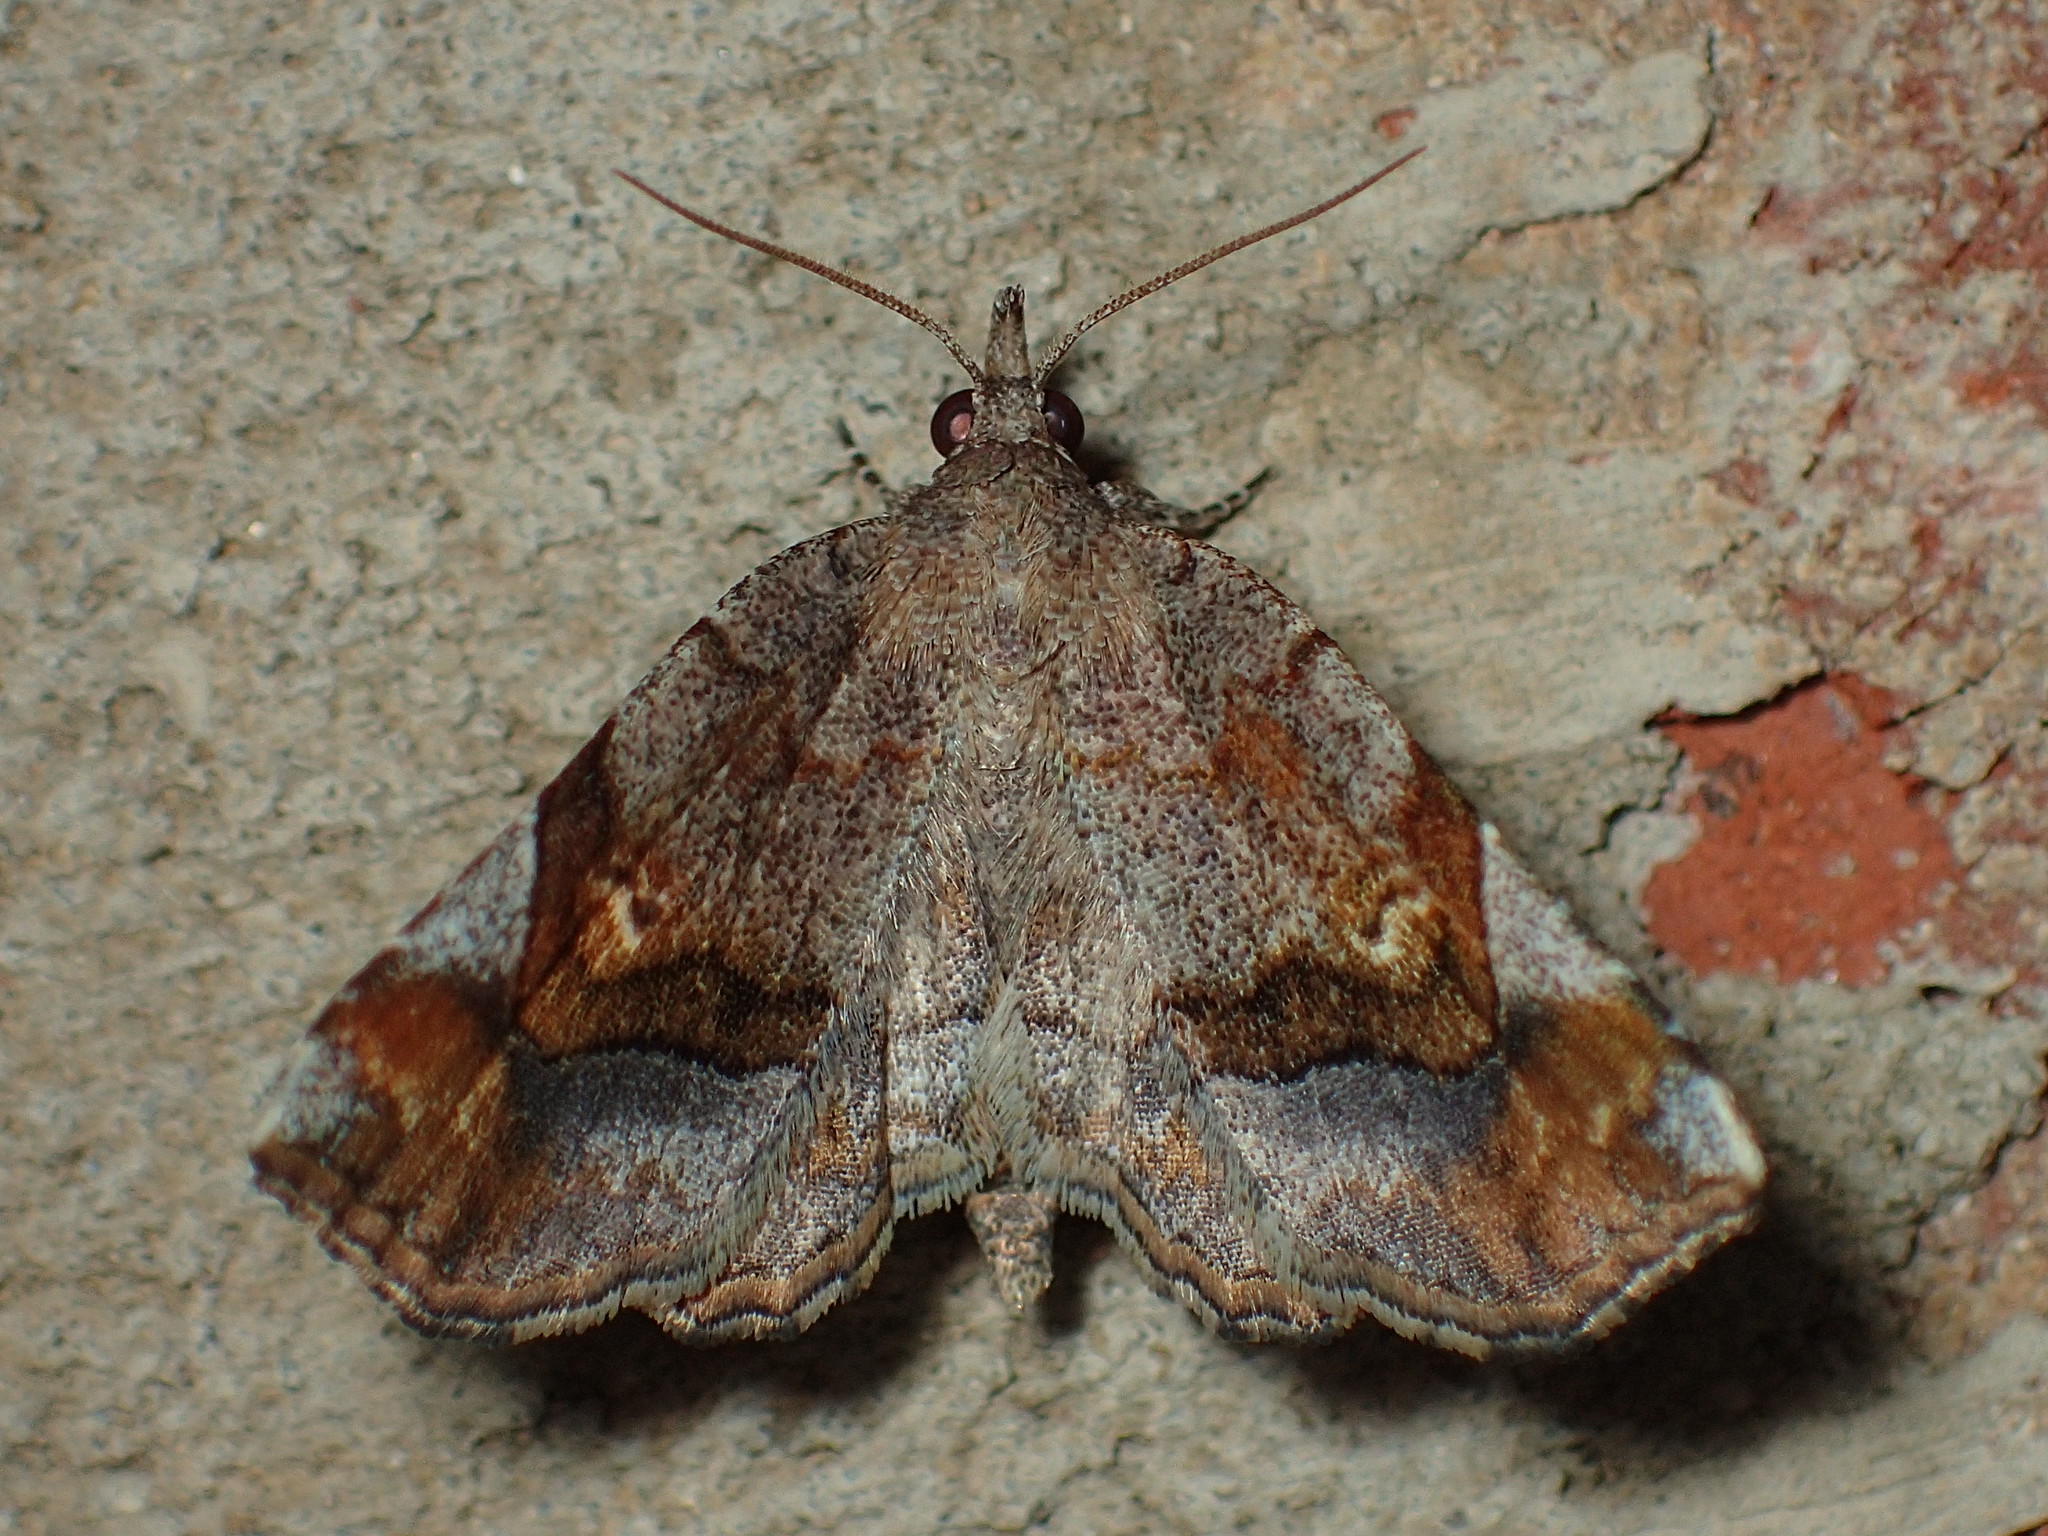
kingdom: Animalia
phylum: Arthropoda
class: Insecta
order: Lepidoptera
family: Erebidae
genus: Pangrapta
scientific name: Pangrapta decoralis
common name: Decorated owlet
